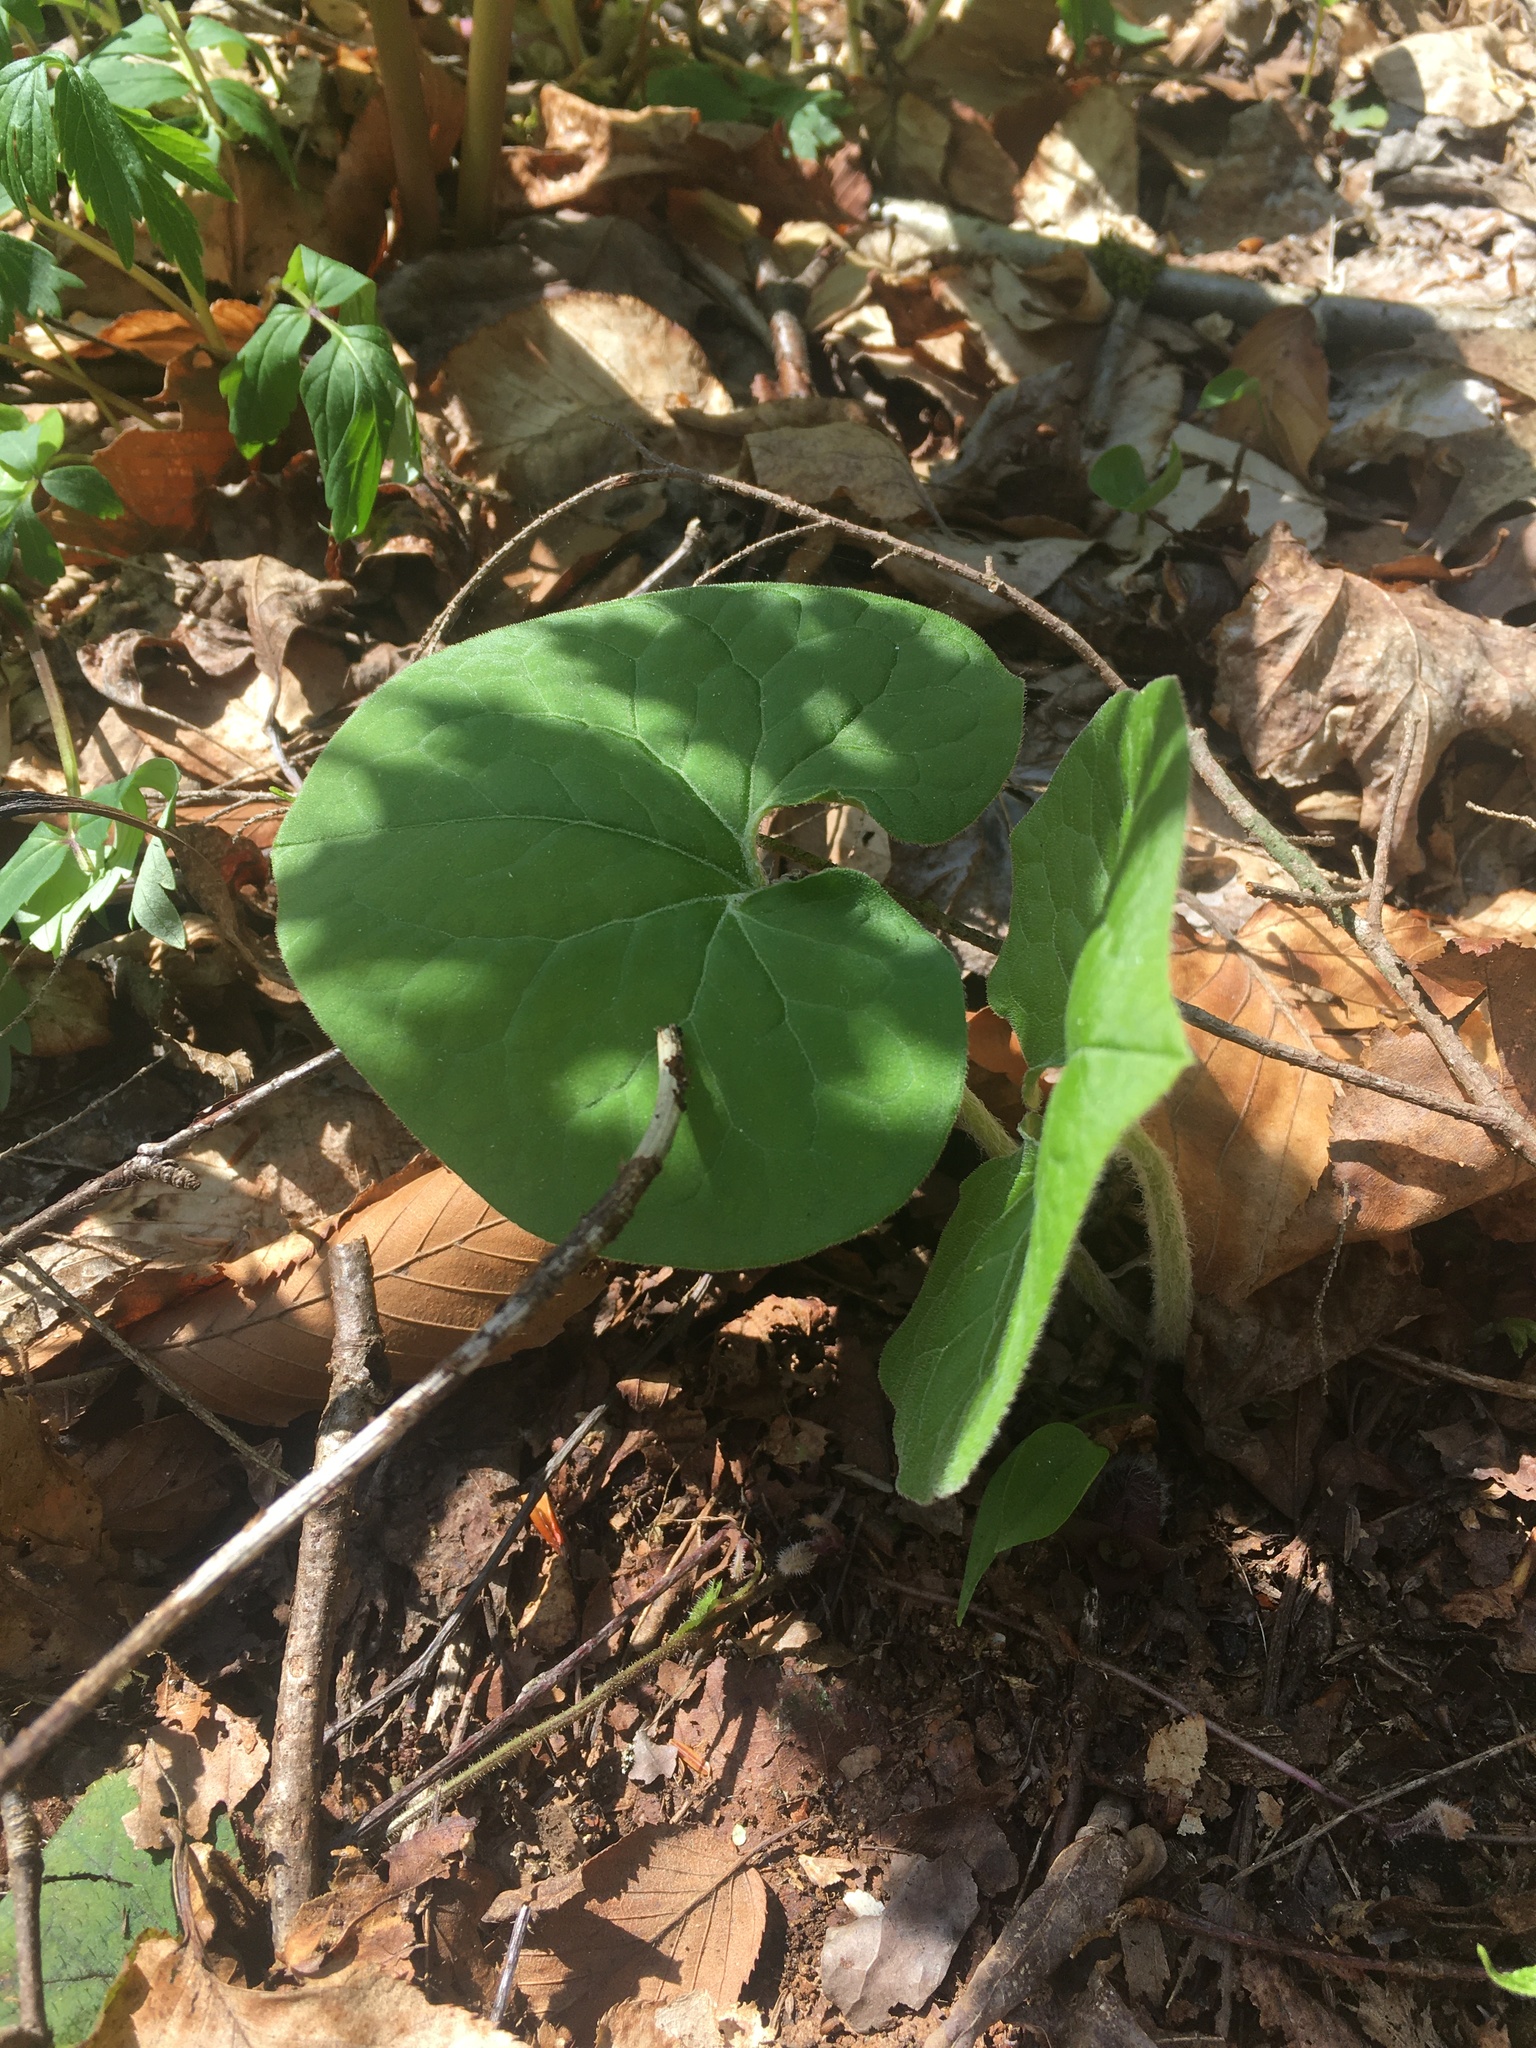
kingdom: Plantae
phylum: Tracheophyta
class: Magnoliopsida
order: Piperales
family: Aristolochiaceae
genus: Asarum
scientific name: Asarum canadense
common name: Wild ginger
